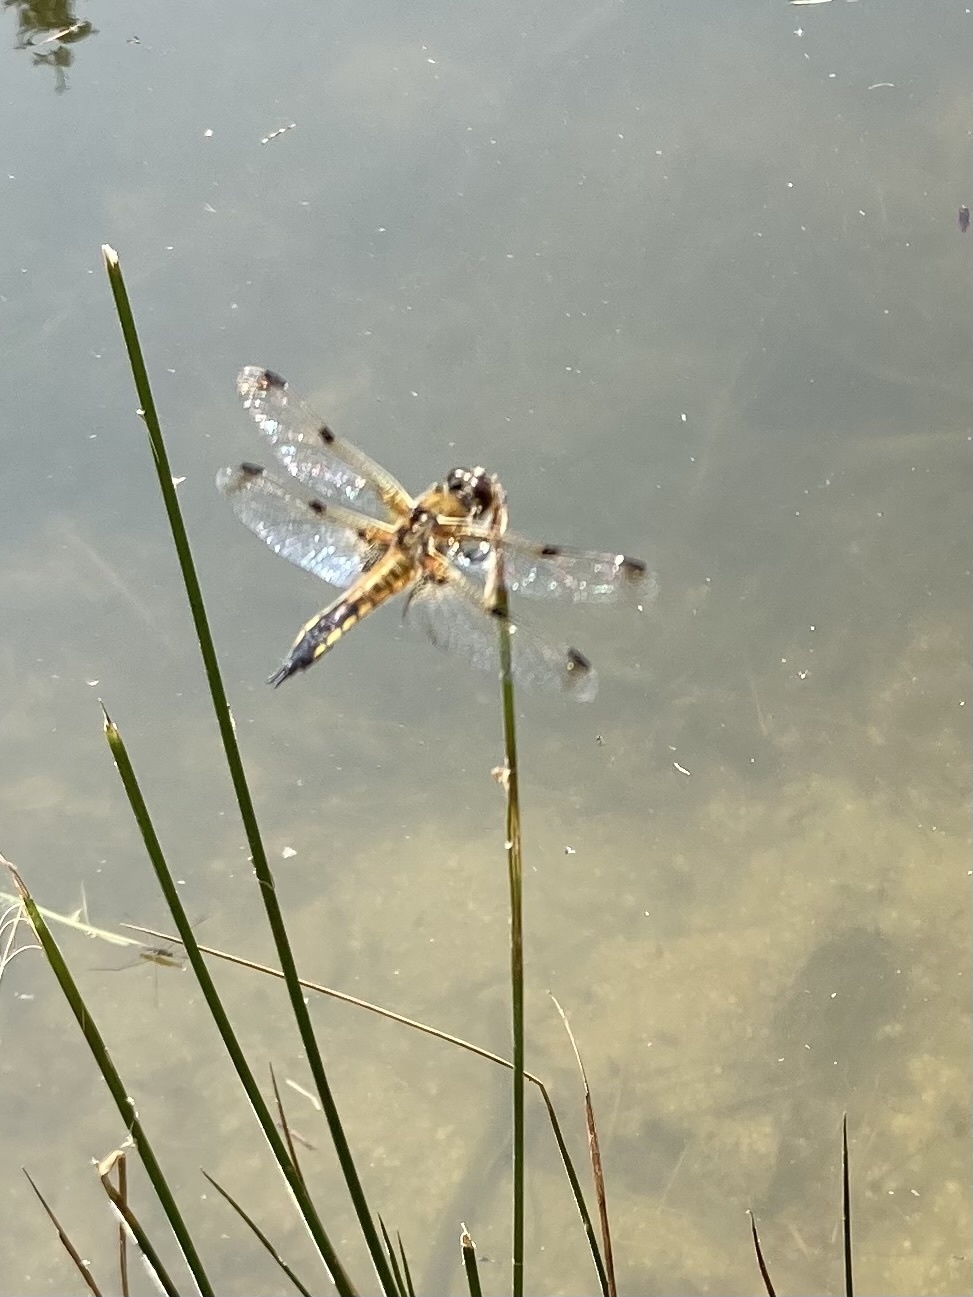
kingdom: Animalia
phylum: Arthropoda
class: Insecta
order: Odonata
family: Libellulidae
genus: Libellula
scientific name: Libellula quadrimaculata
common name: Four-spotted chaser
